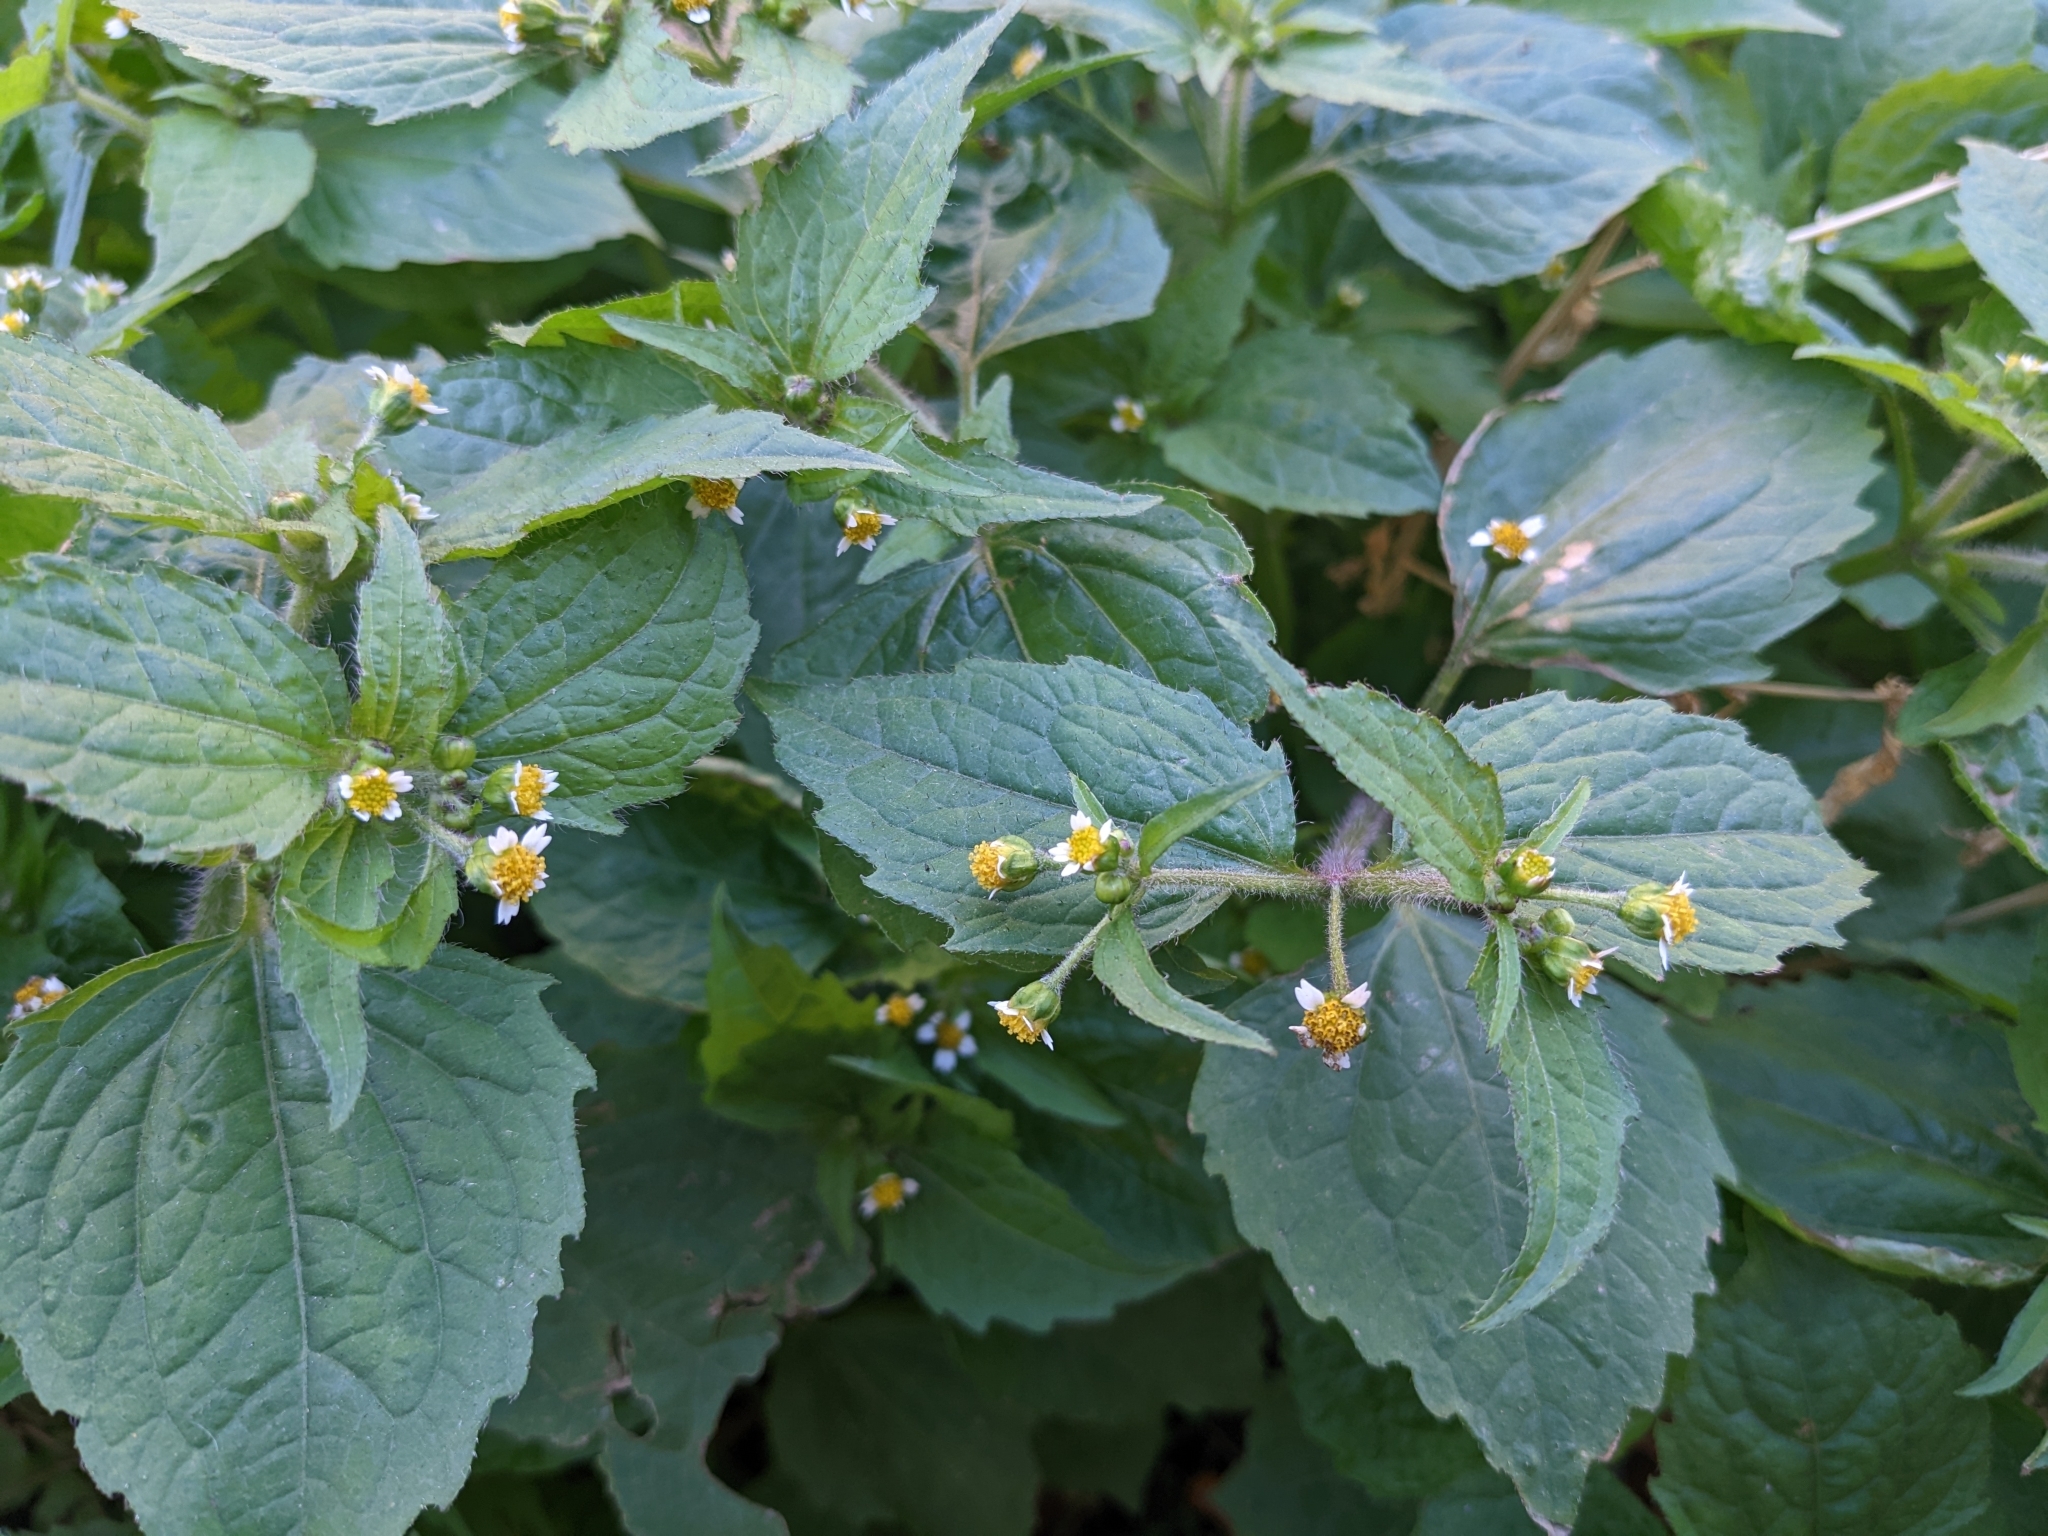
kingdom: Plantae
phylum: Tracheophyta
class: Magnoliopsida
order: Asterales
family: Asteraceae
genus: Galinsoga
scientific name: Galinsoga quadriradiata
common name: Shaggy soldier
